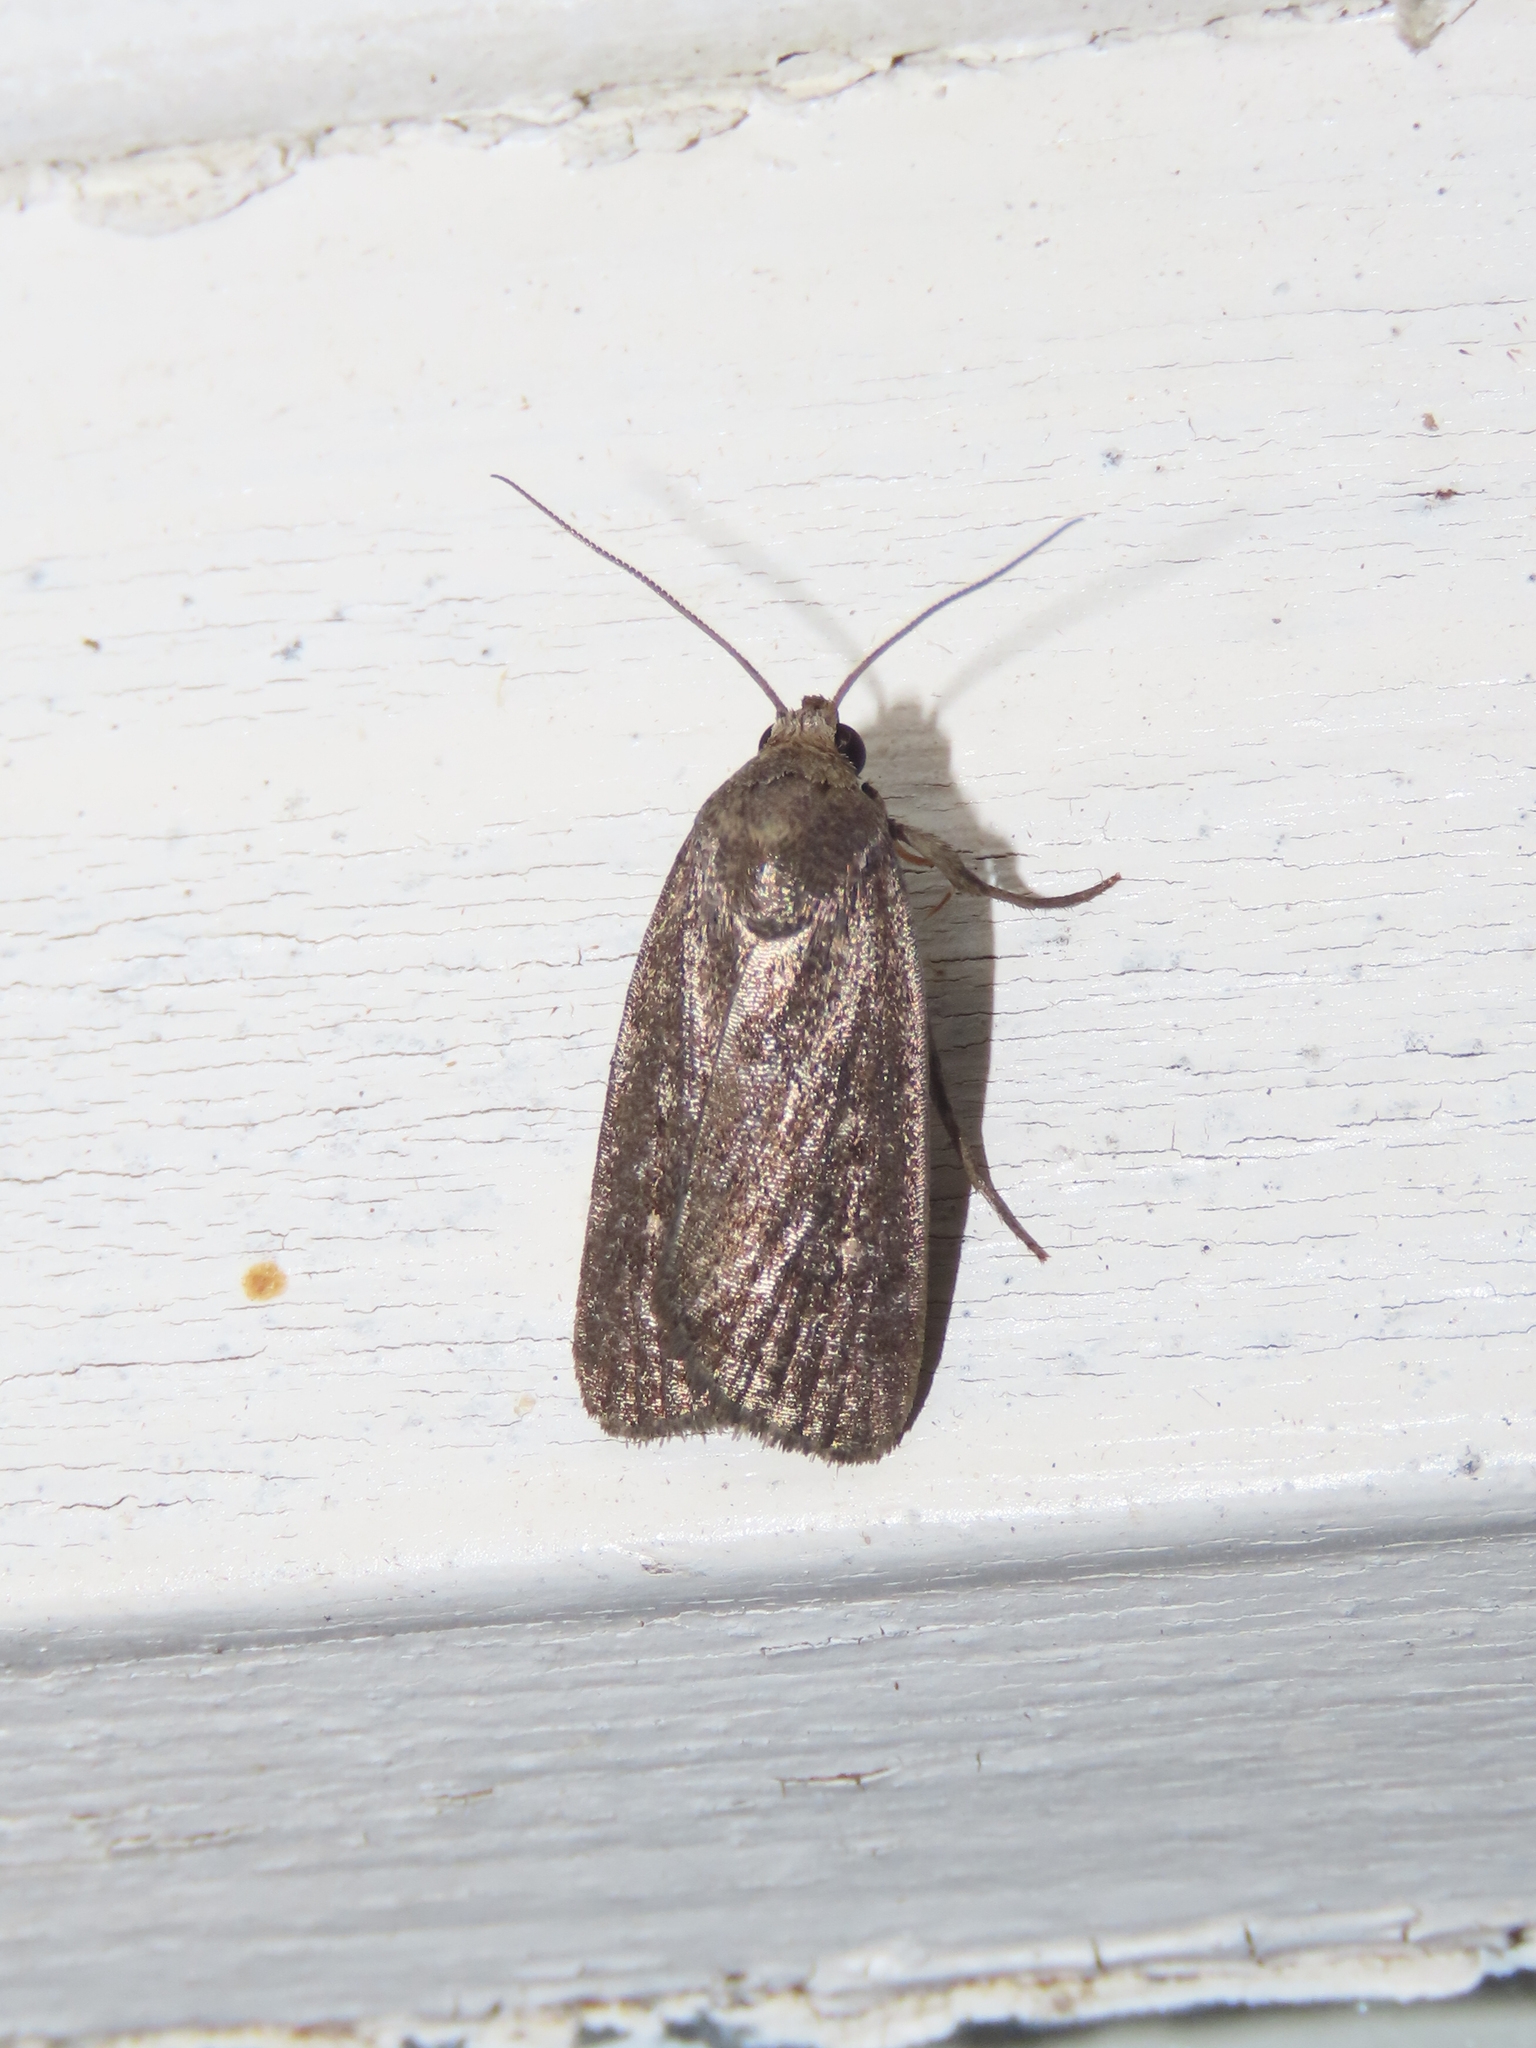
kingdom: Animalia
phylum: Arthropoda
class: Insecta
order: Lepidoptera
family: Noctuidae
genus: Proxenus
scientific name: Proxenus miranda
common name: Miranda moth
